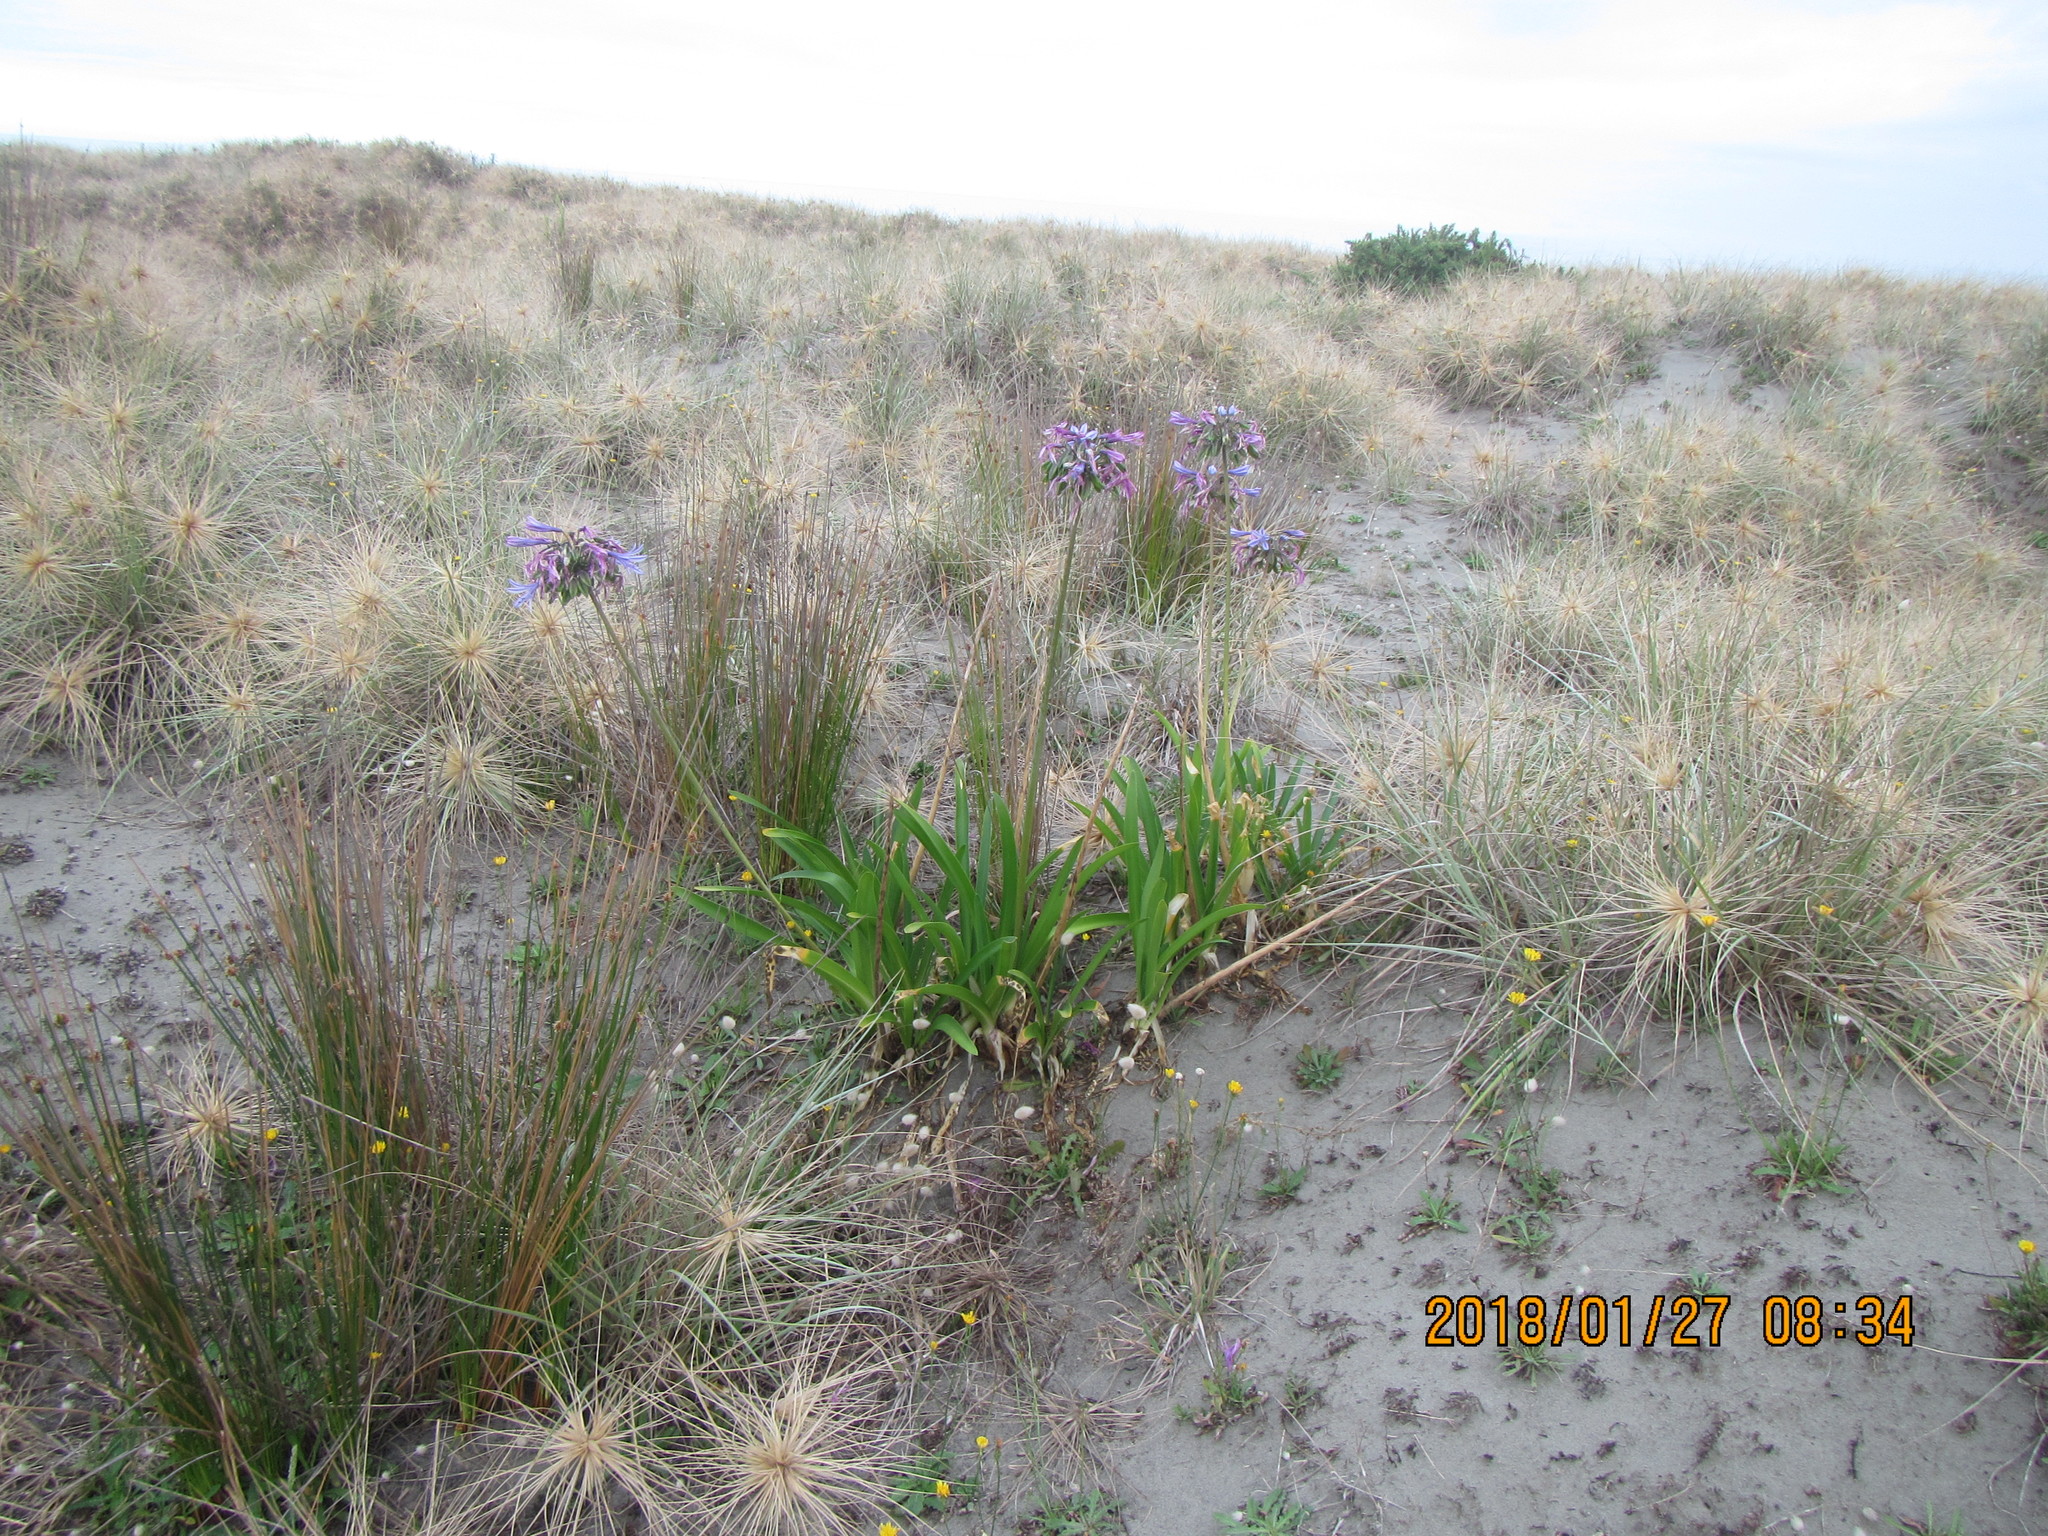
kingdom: Plantae
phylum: Tracheophyta
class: Liliopsida
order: Asparagales
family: Amaryllidaceae
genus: Agapanthus
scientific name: Agapanthus praecox
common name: African-lily
